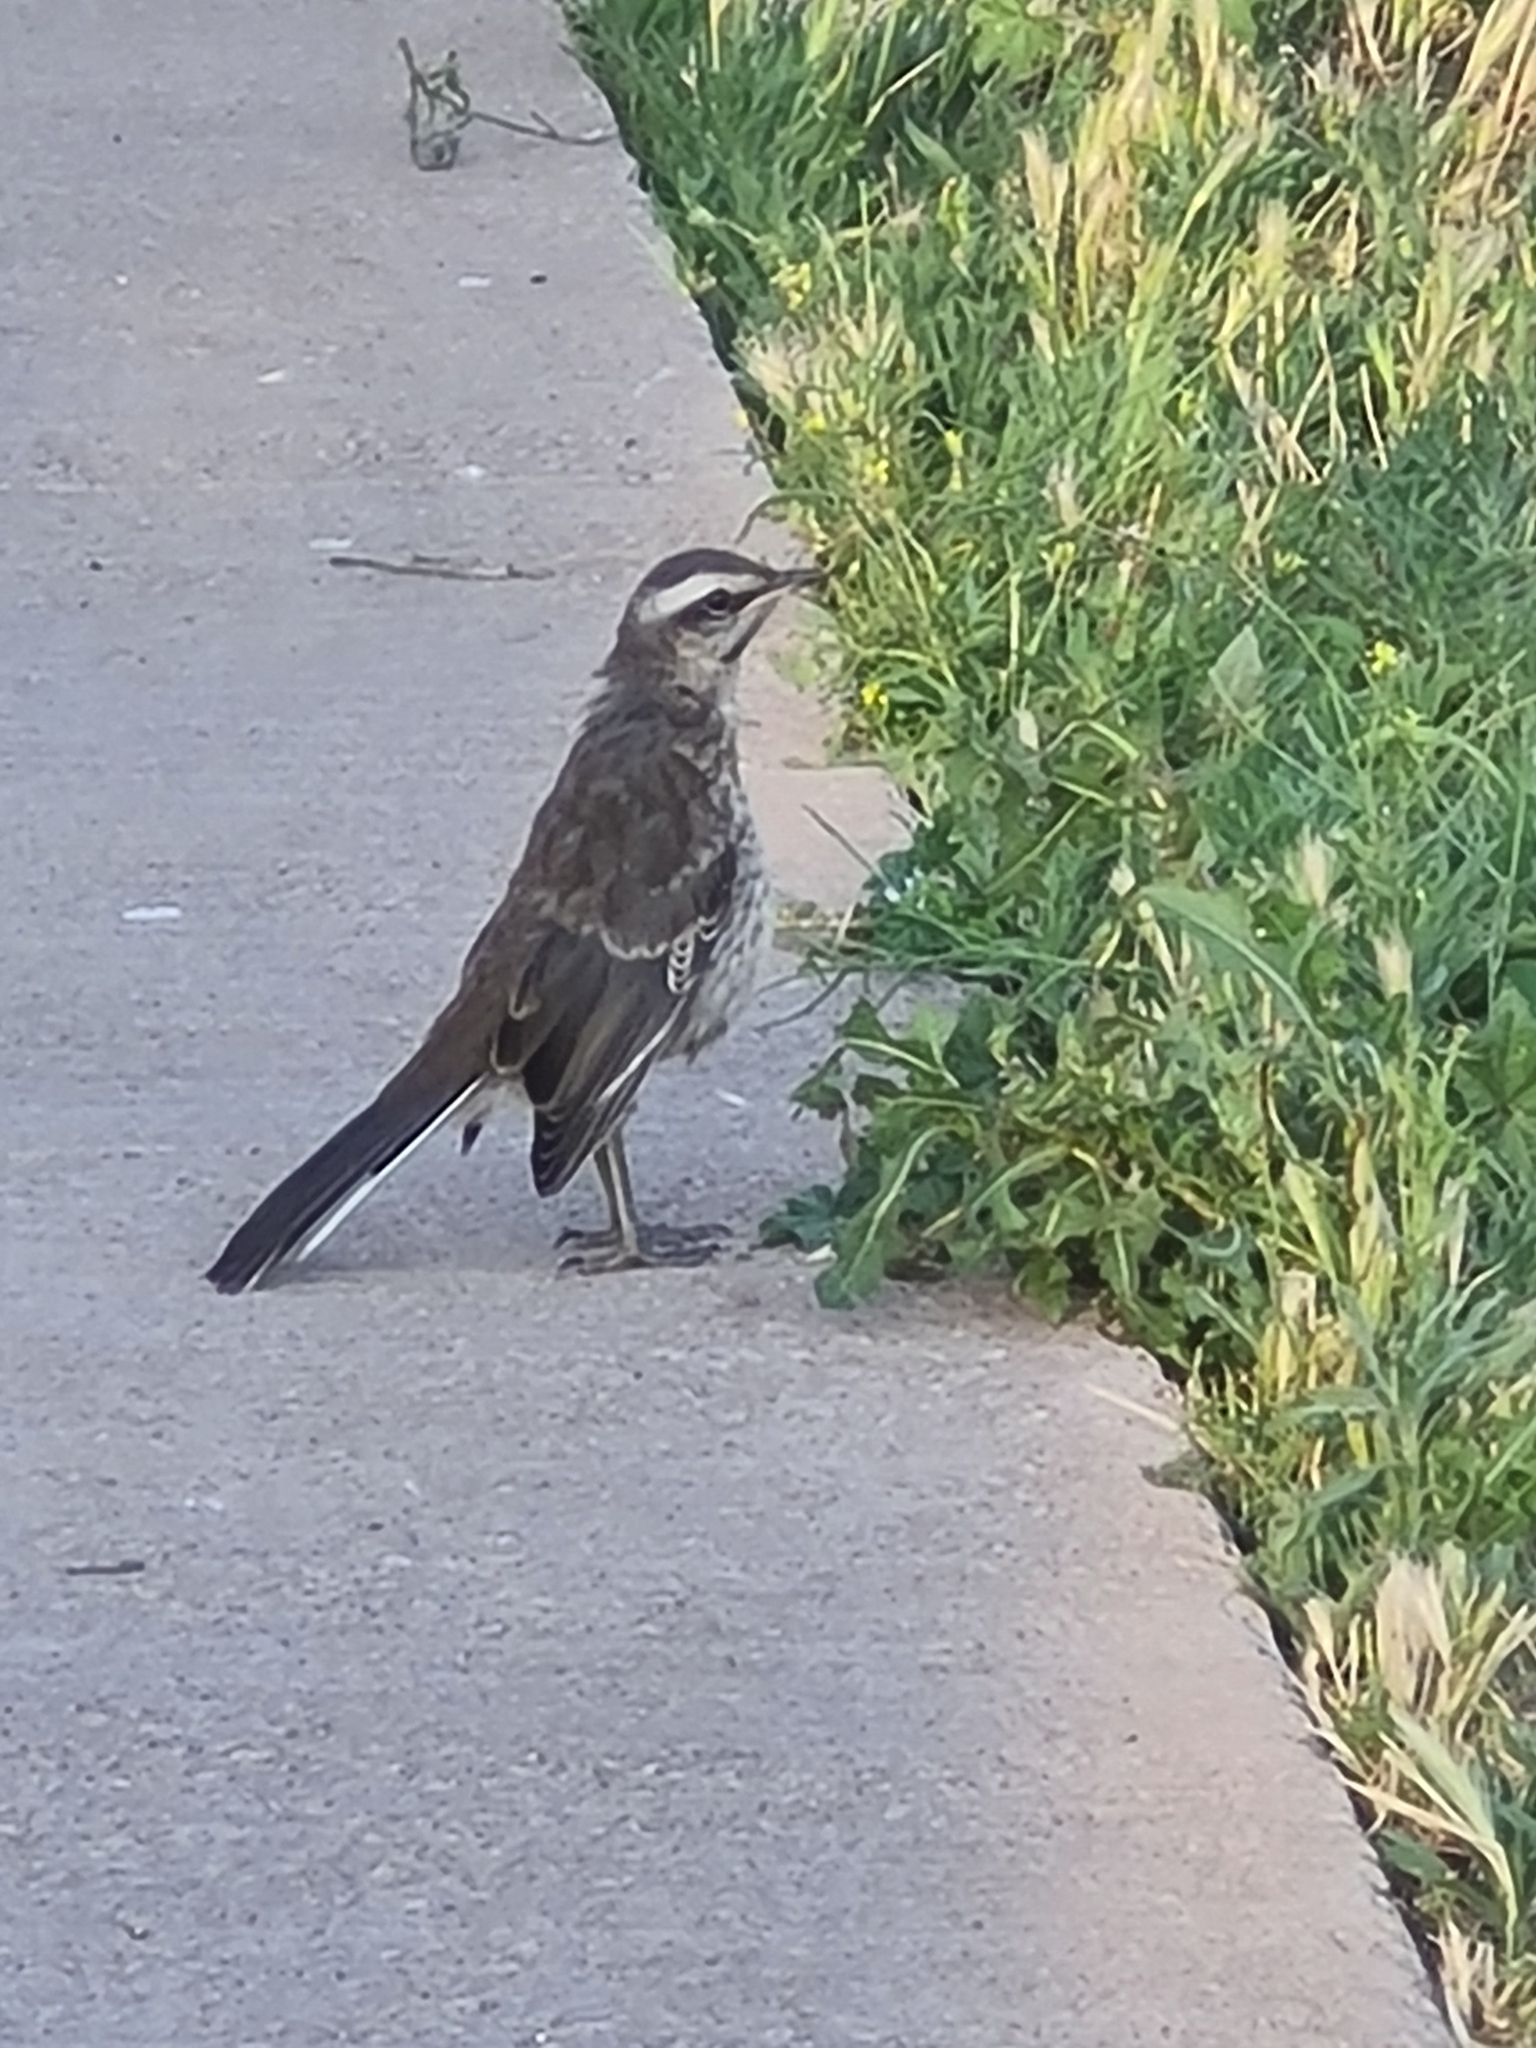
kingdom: Animalia
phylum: Chordata
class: Aves
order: Passeriformes
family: Mimidae
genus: Mimus
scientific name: Mimus thenca
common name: Chilean mockingbird
